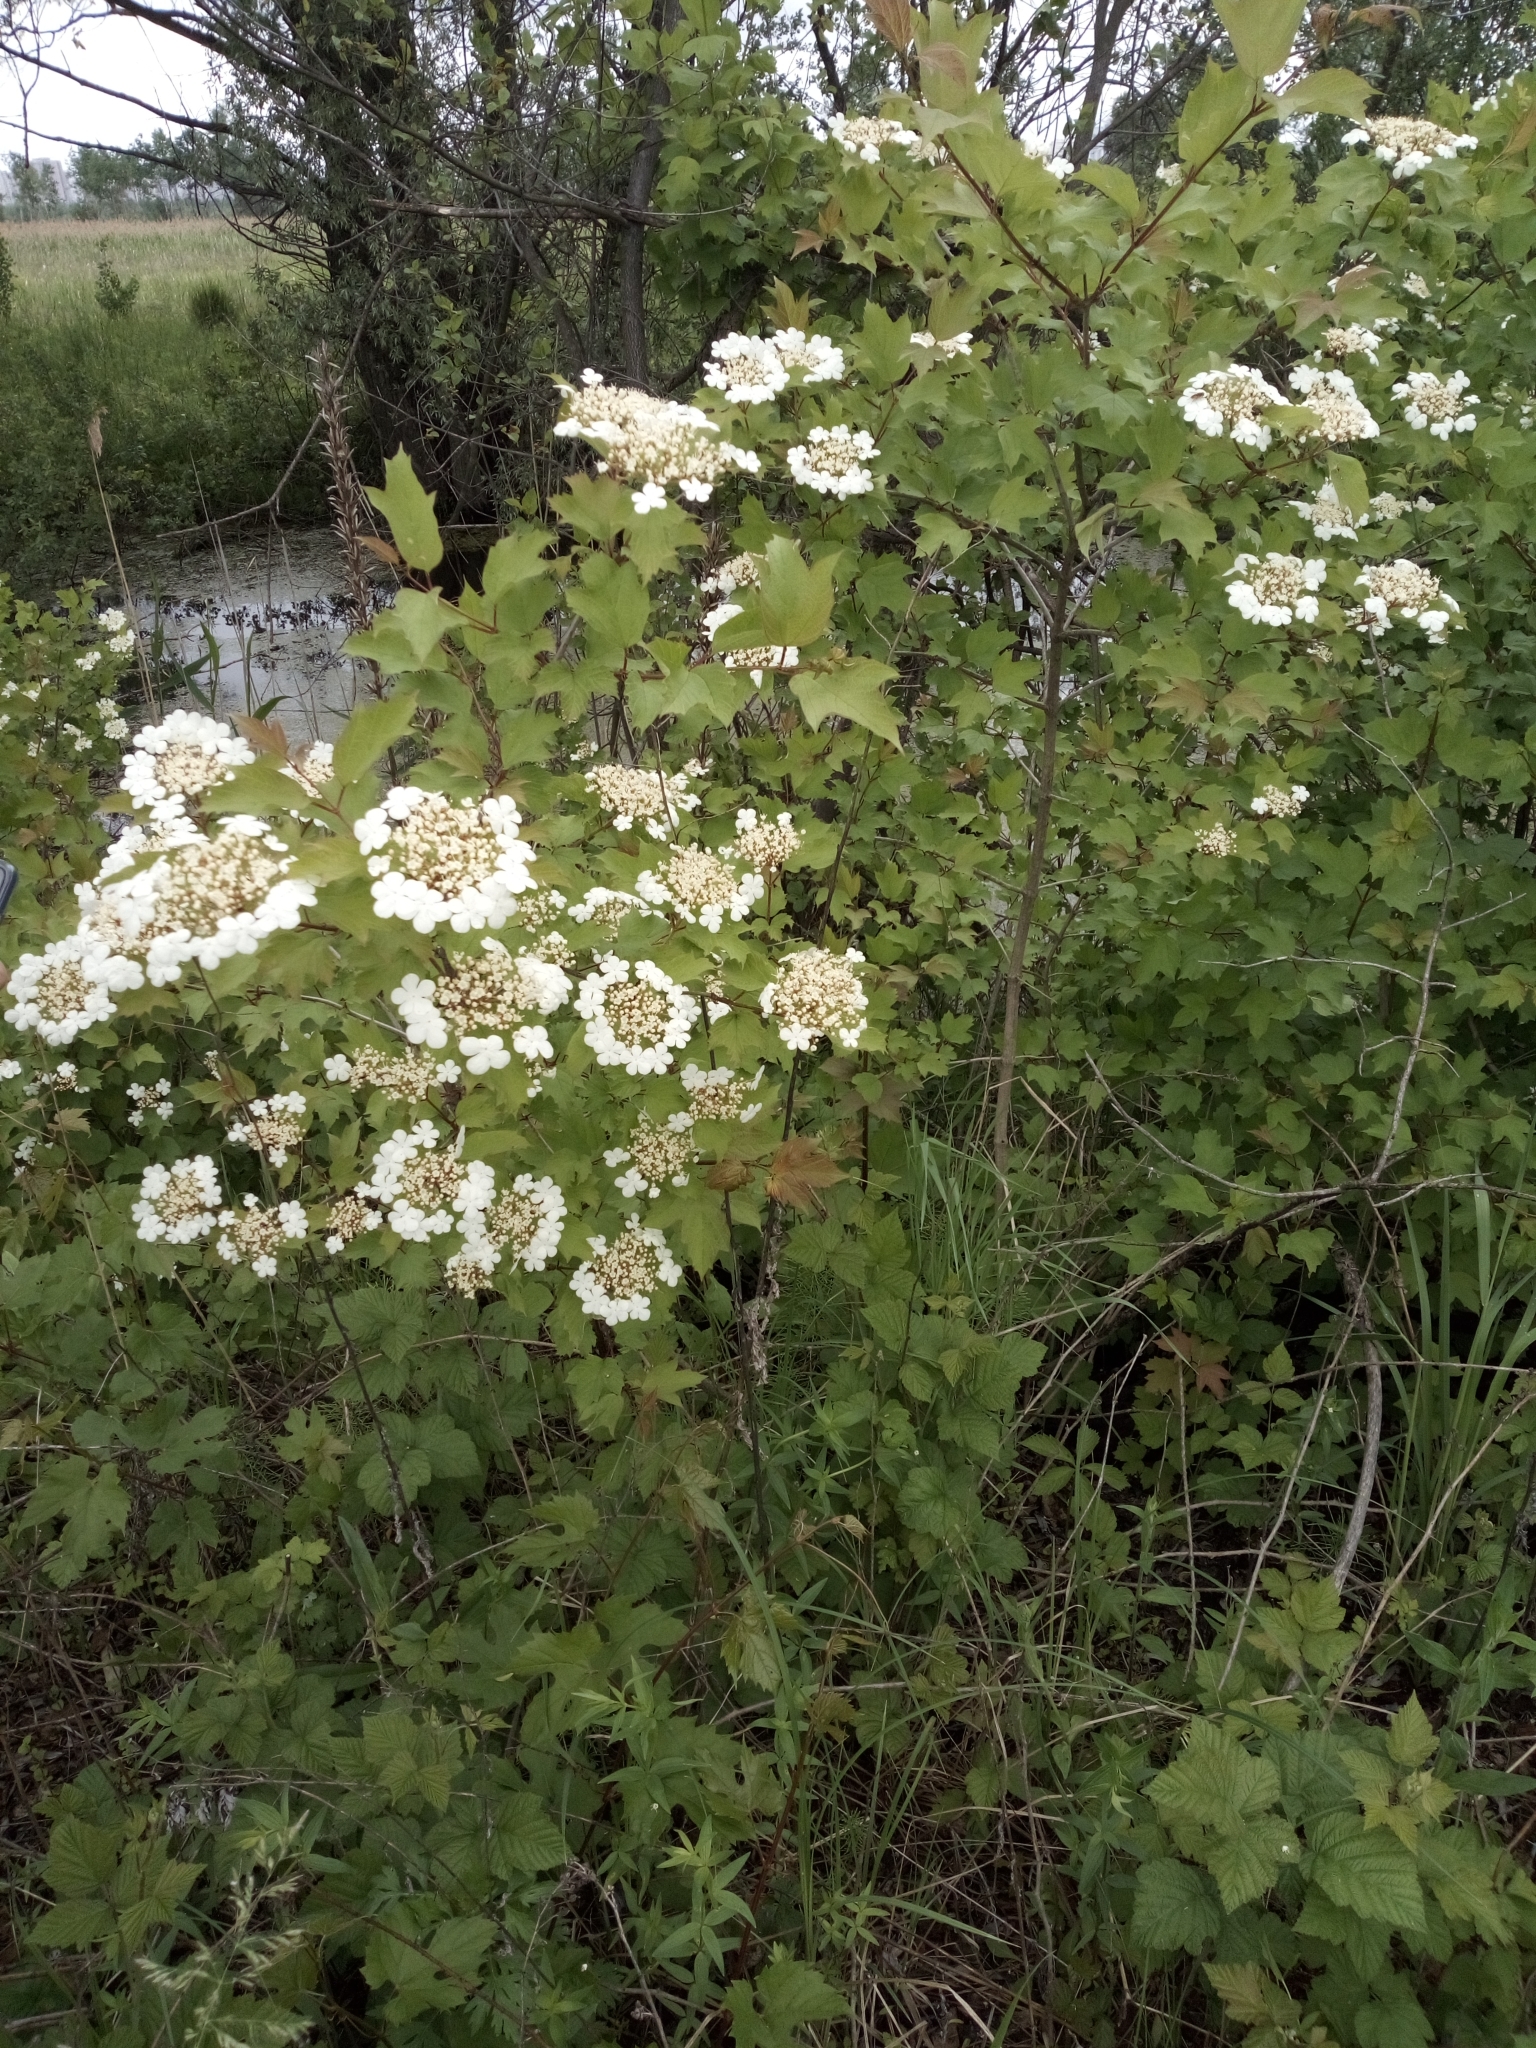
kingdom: Plantae
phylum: Tracheophyta
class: Magnoliopsida
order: Dipsacales
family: Viburnaceae
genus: Viburnum
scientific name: Viburnum opulus
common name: Guelder-rose
